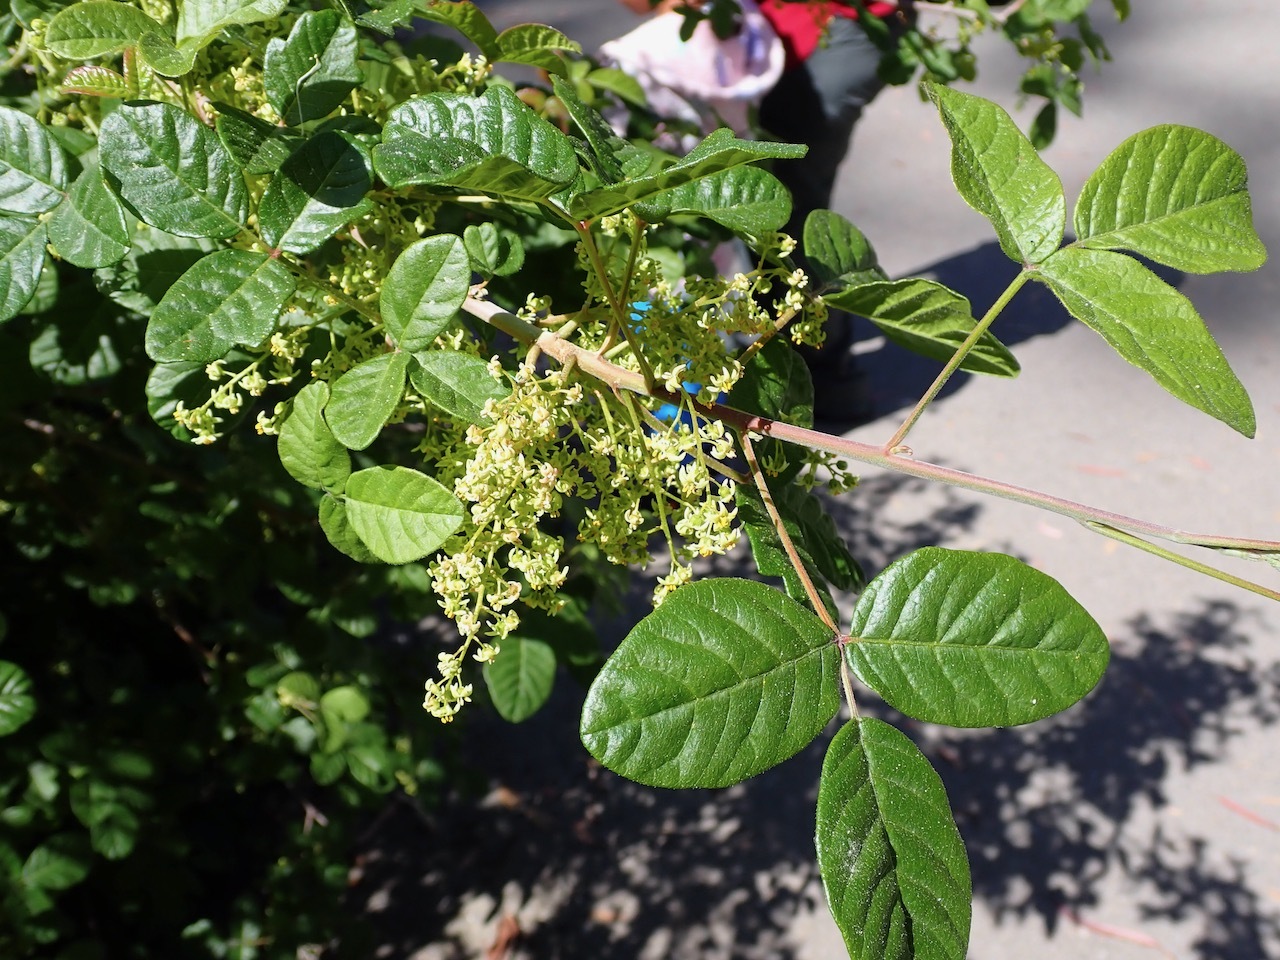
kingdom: Plantae
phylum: Tracheophyta
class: Magnoliopsida
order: Sapindales
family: Anacardiaceae
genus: Toxicodendron
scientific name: Toxicodendron diversilobum
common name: Pacific poison-oak
